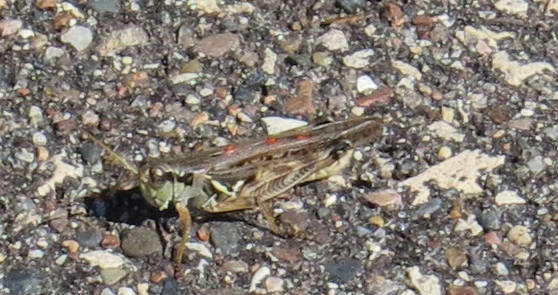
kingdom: Animalia
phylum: Arthropoda
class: Insecta
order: Orthoptera
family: Acrididae
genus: Melanoplus
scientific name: Melanoplus sanguinipes
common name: Migratory grasshopper
